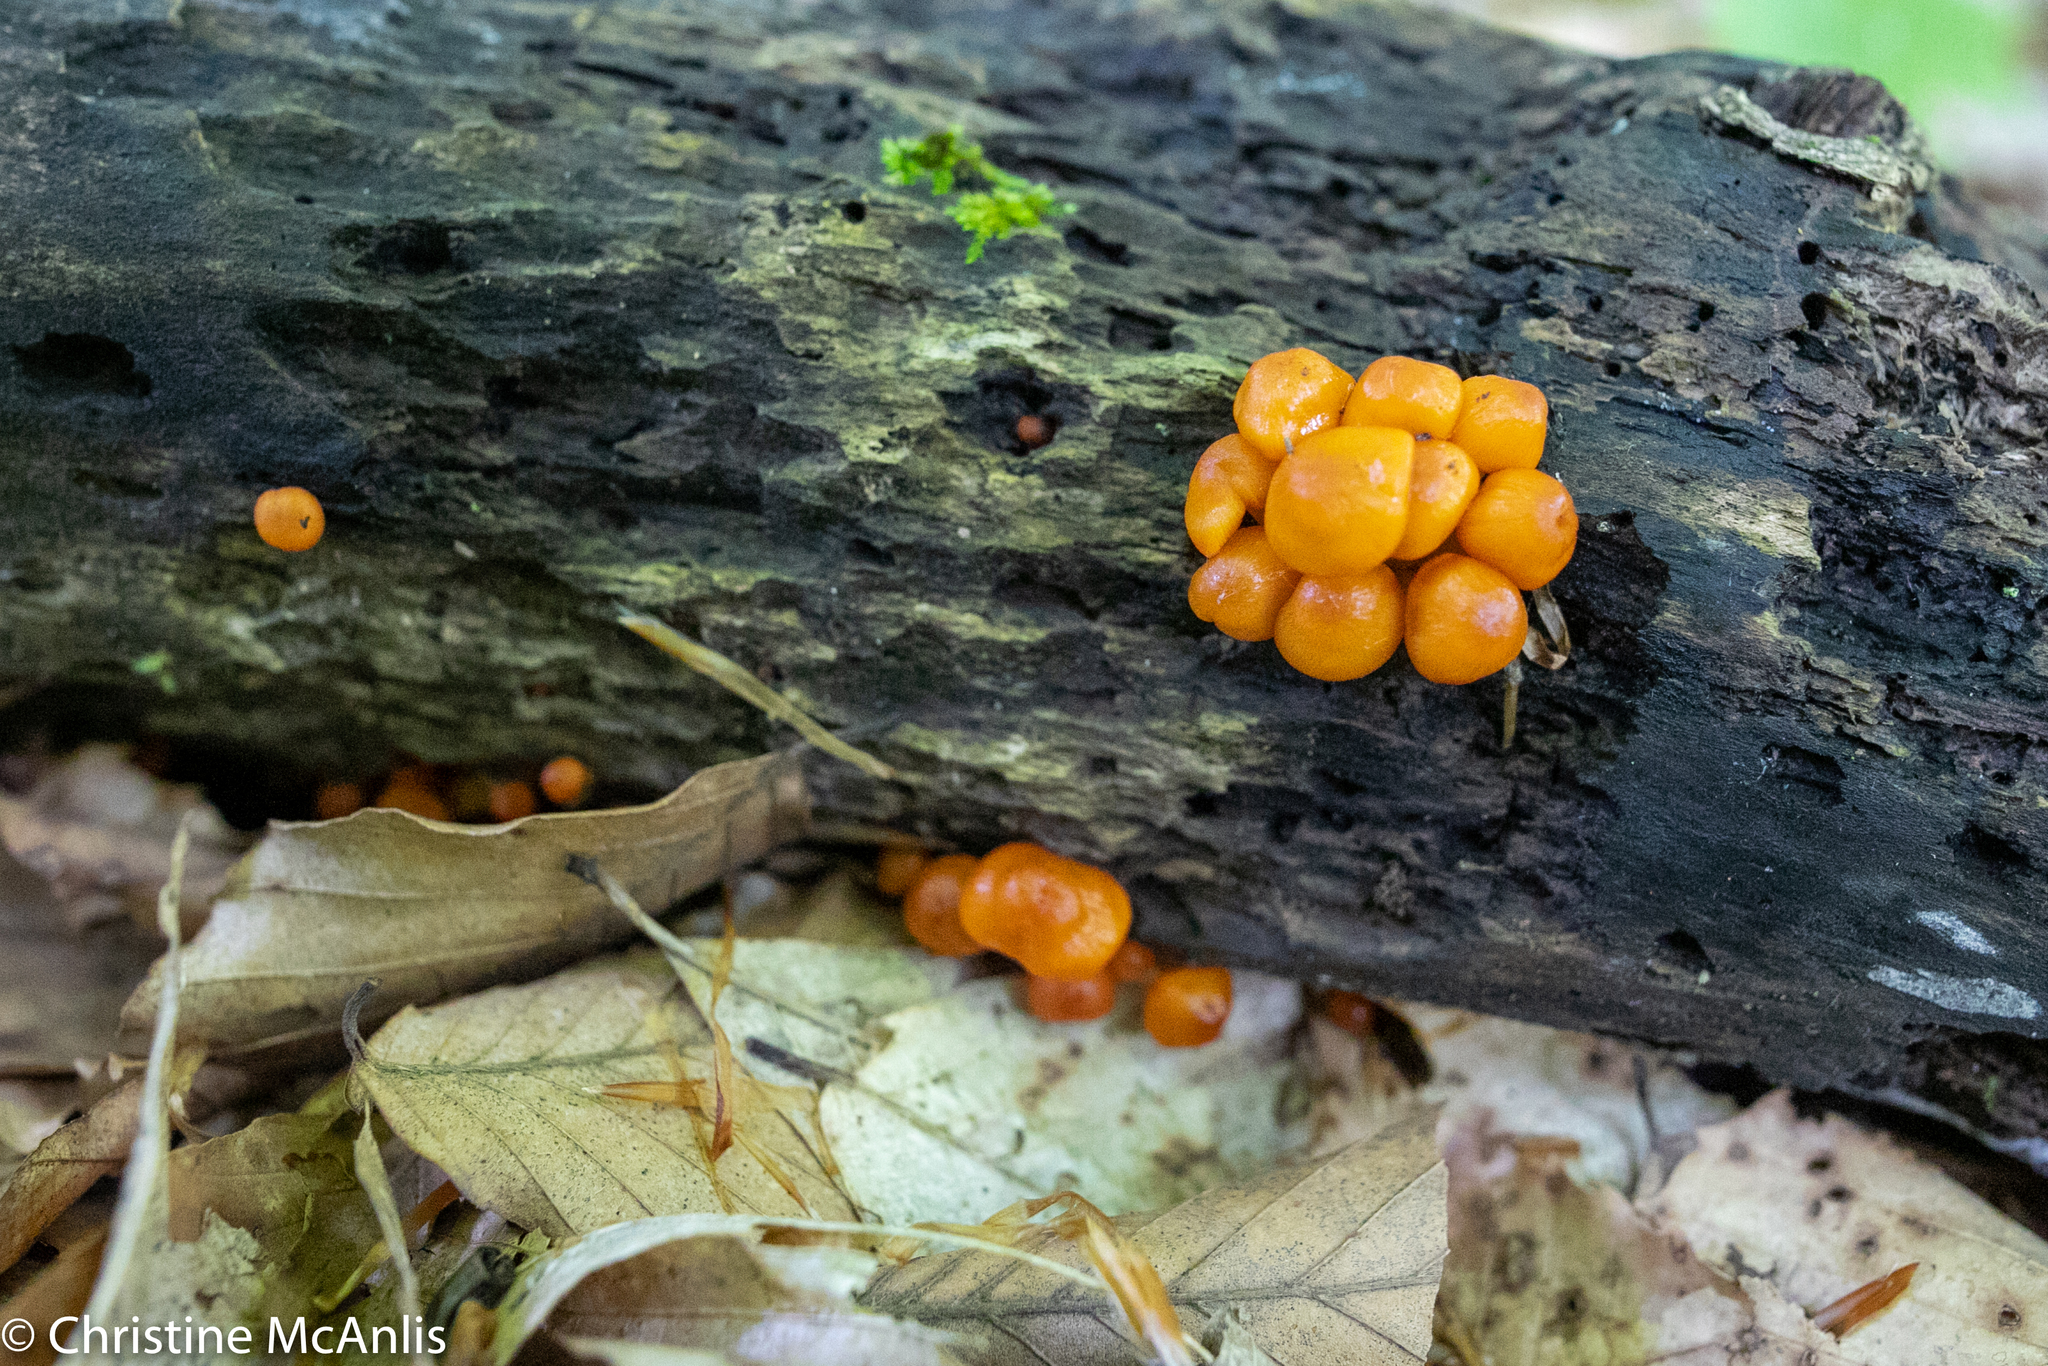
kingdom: Fungi
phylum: Basidiomycota
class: Agaricomycetes
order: Agaricales
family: Mycenaceae
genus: Mycena
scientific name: Mycena leaiana
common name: Orange mycena
